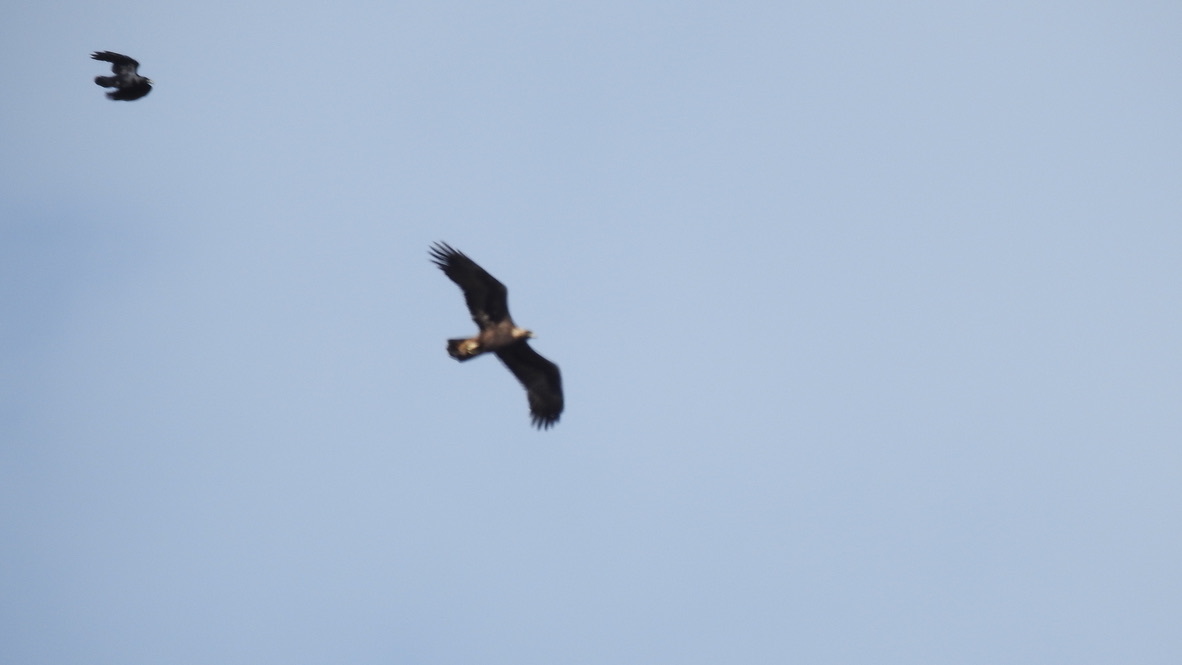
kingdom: Animalia
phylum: Chordata
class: Aves
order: Passeriformes
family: Corvidae
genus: Corvus
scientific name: Corvus brachyrhynchos
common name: American crow
